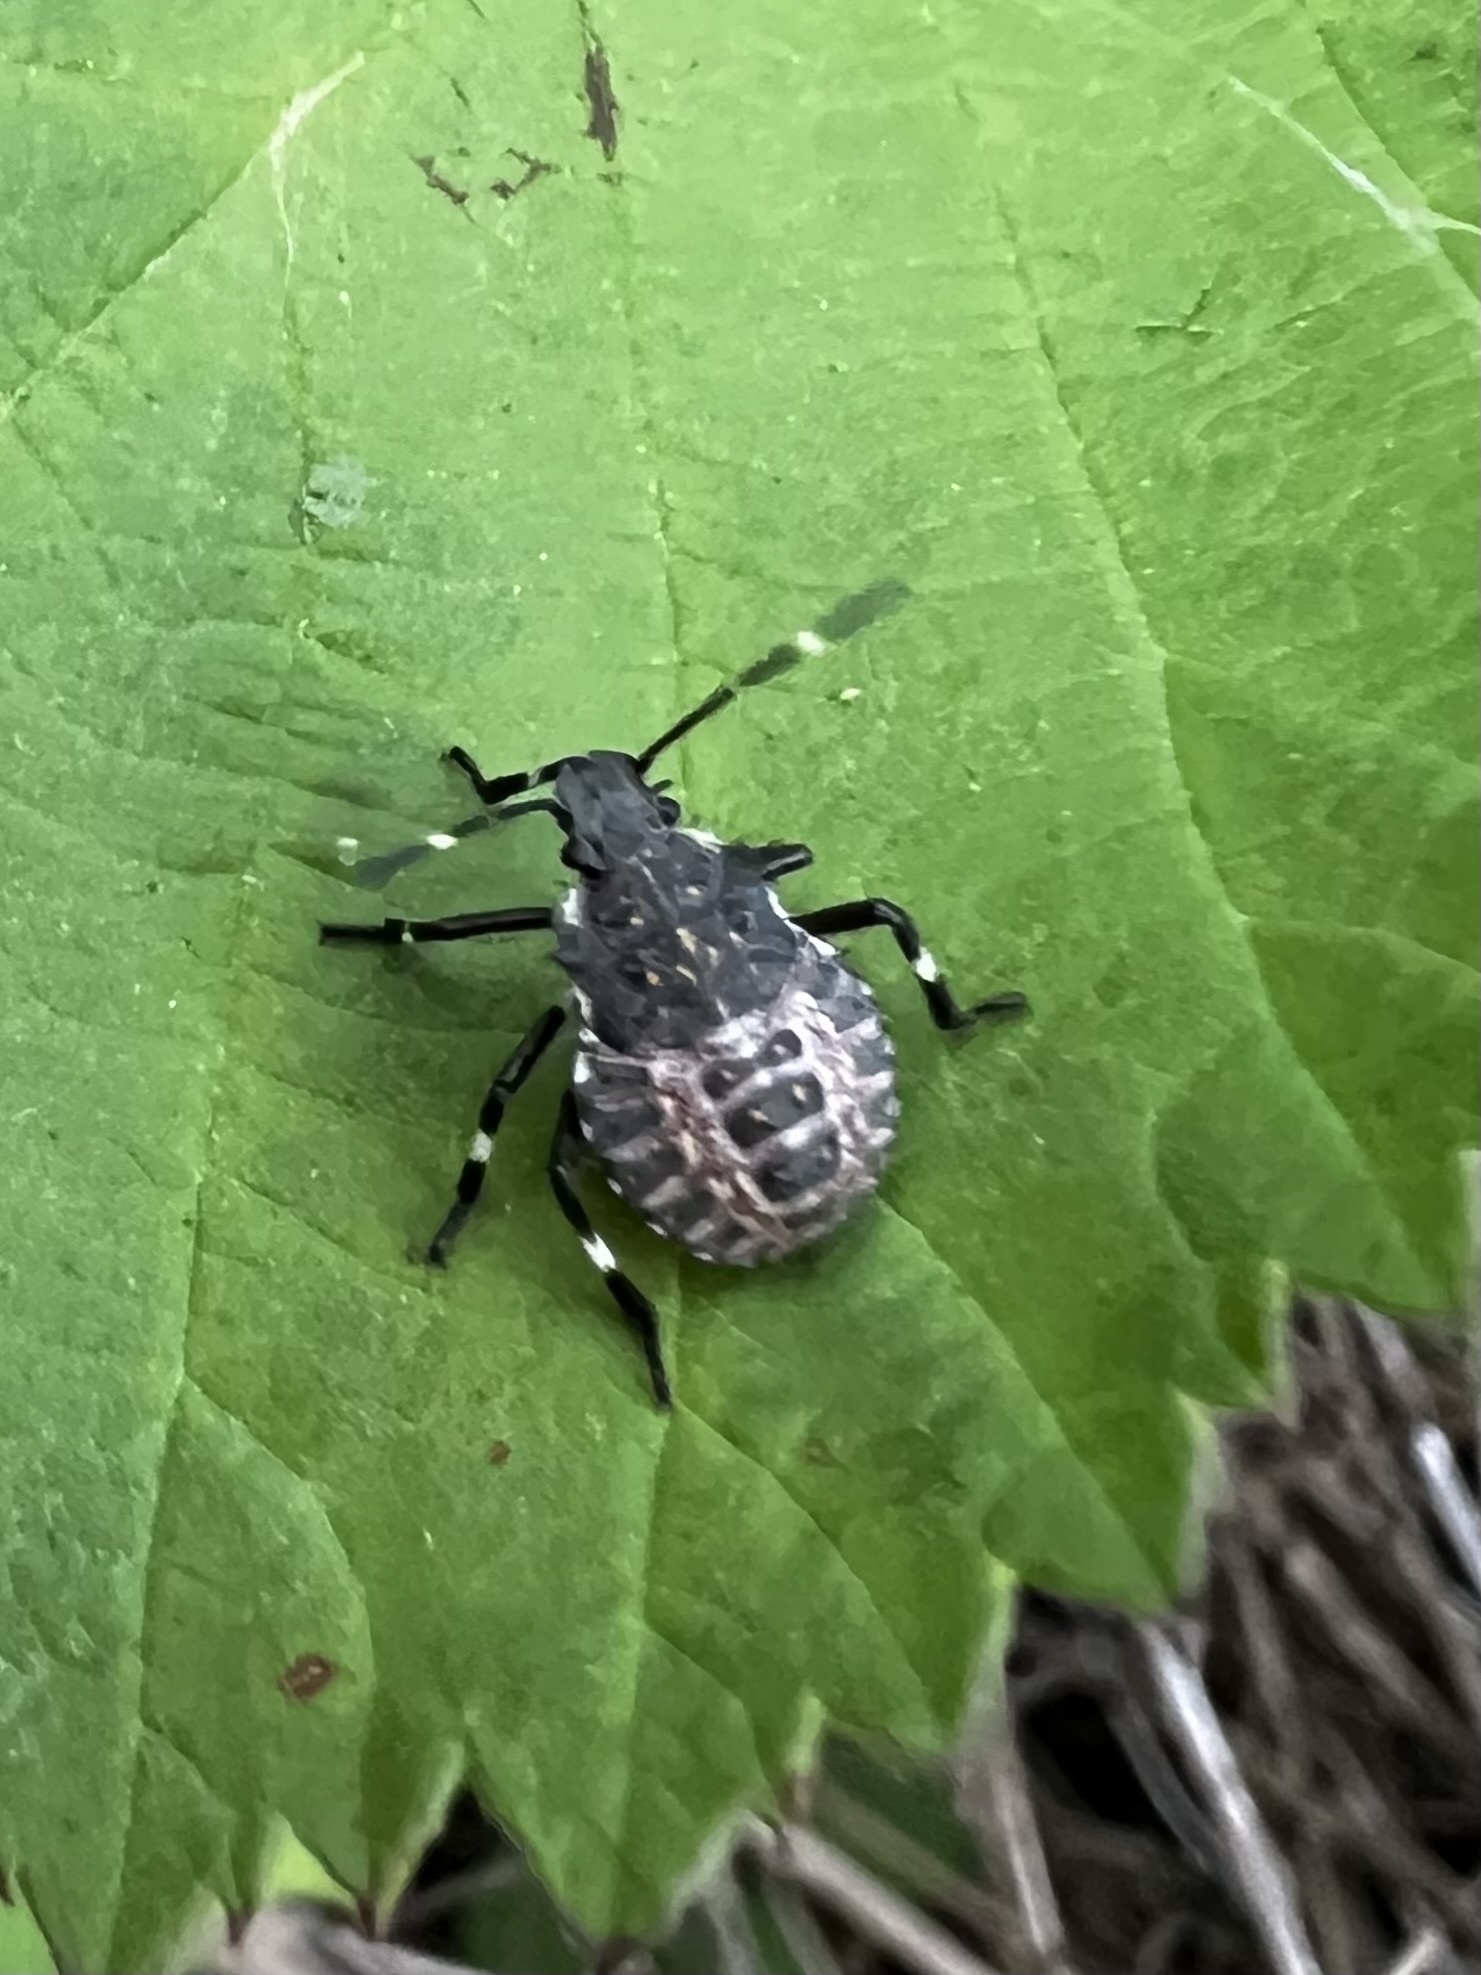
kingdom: Animalia
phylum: Arthropoda
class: Insecta
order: Hemiptera
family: Pentatomidae
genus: Halyomorpha
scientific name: Halyomorpha halys
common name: Brown marmorated stink bug
